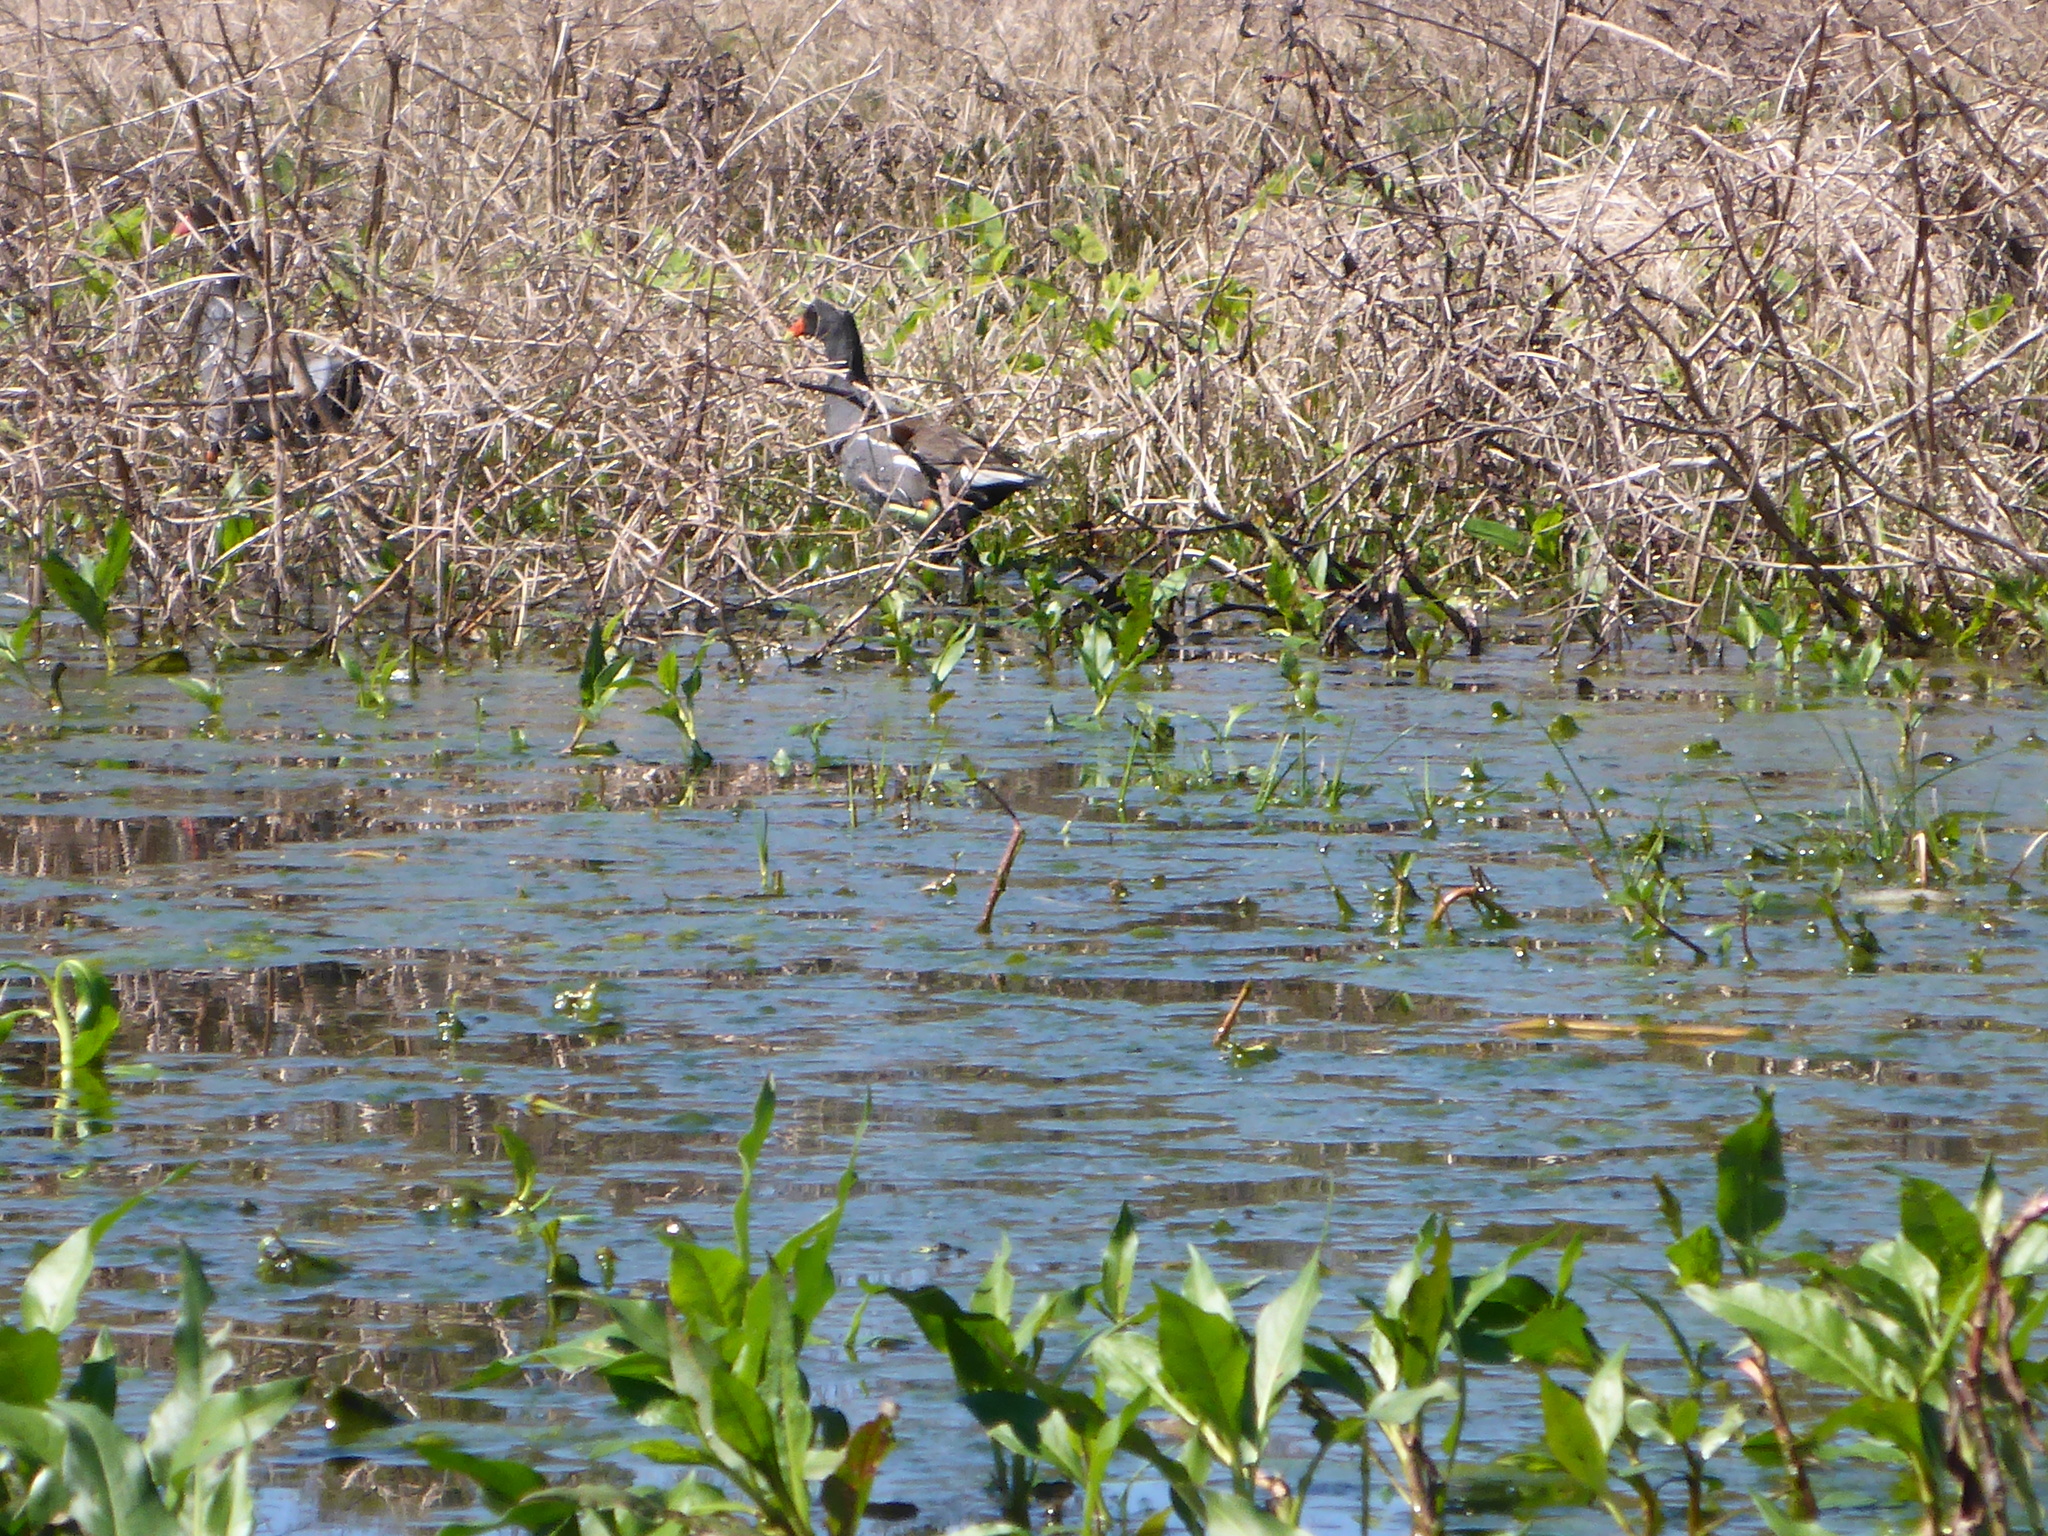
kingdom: Animalia
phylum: Chordata
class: Aves
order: Gruiformes
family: Rallidae
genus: Gallinula
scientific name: Gallinula chloropus
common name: Common moorhen
